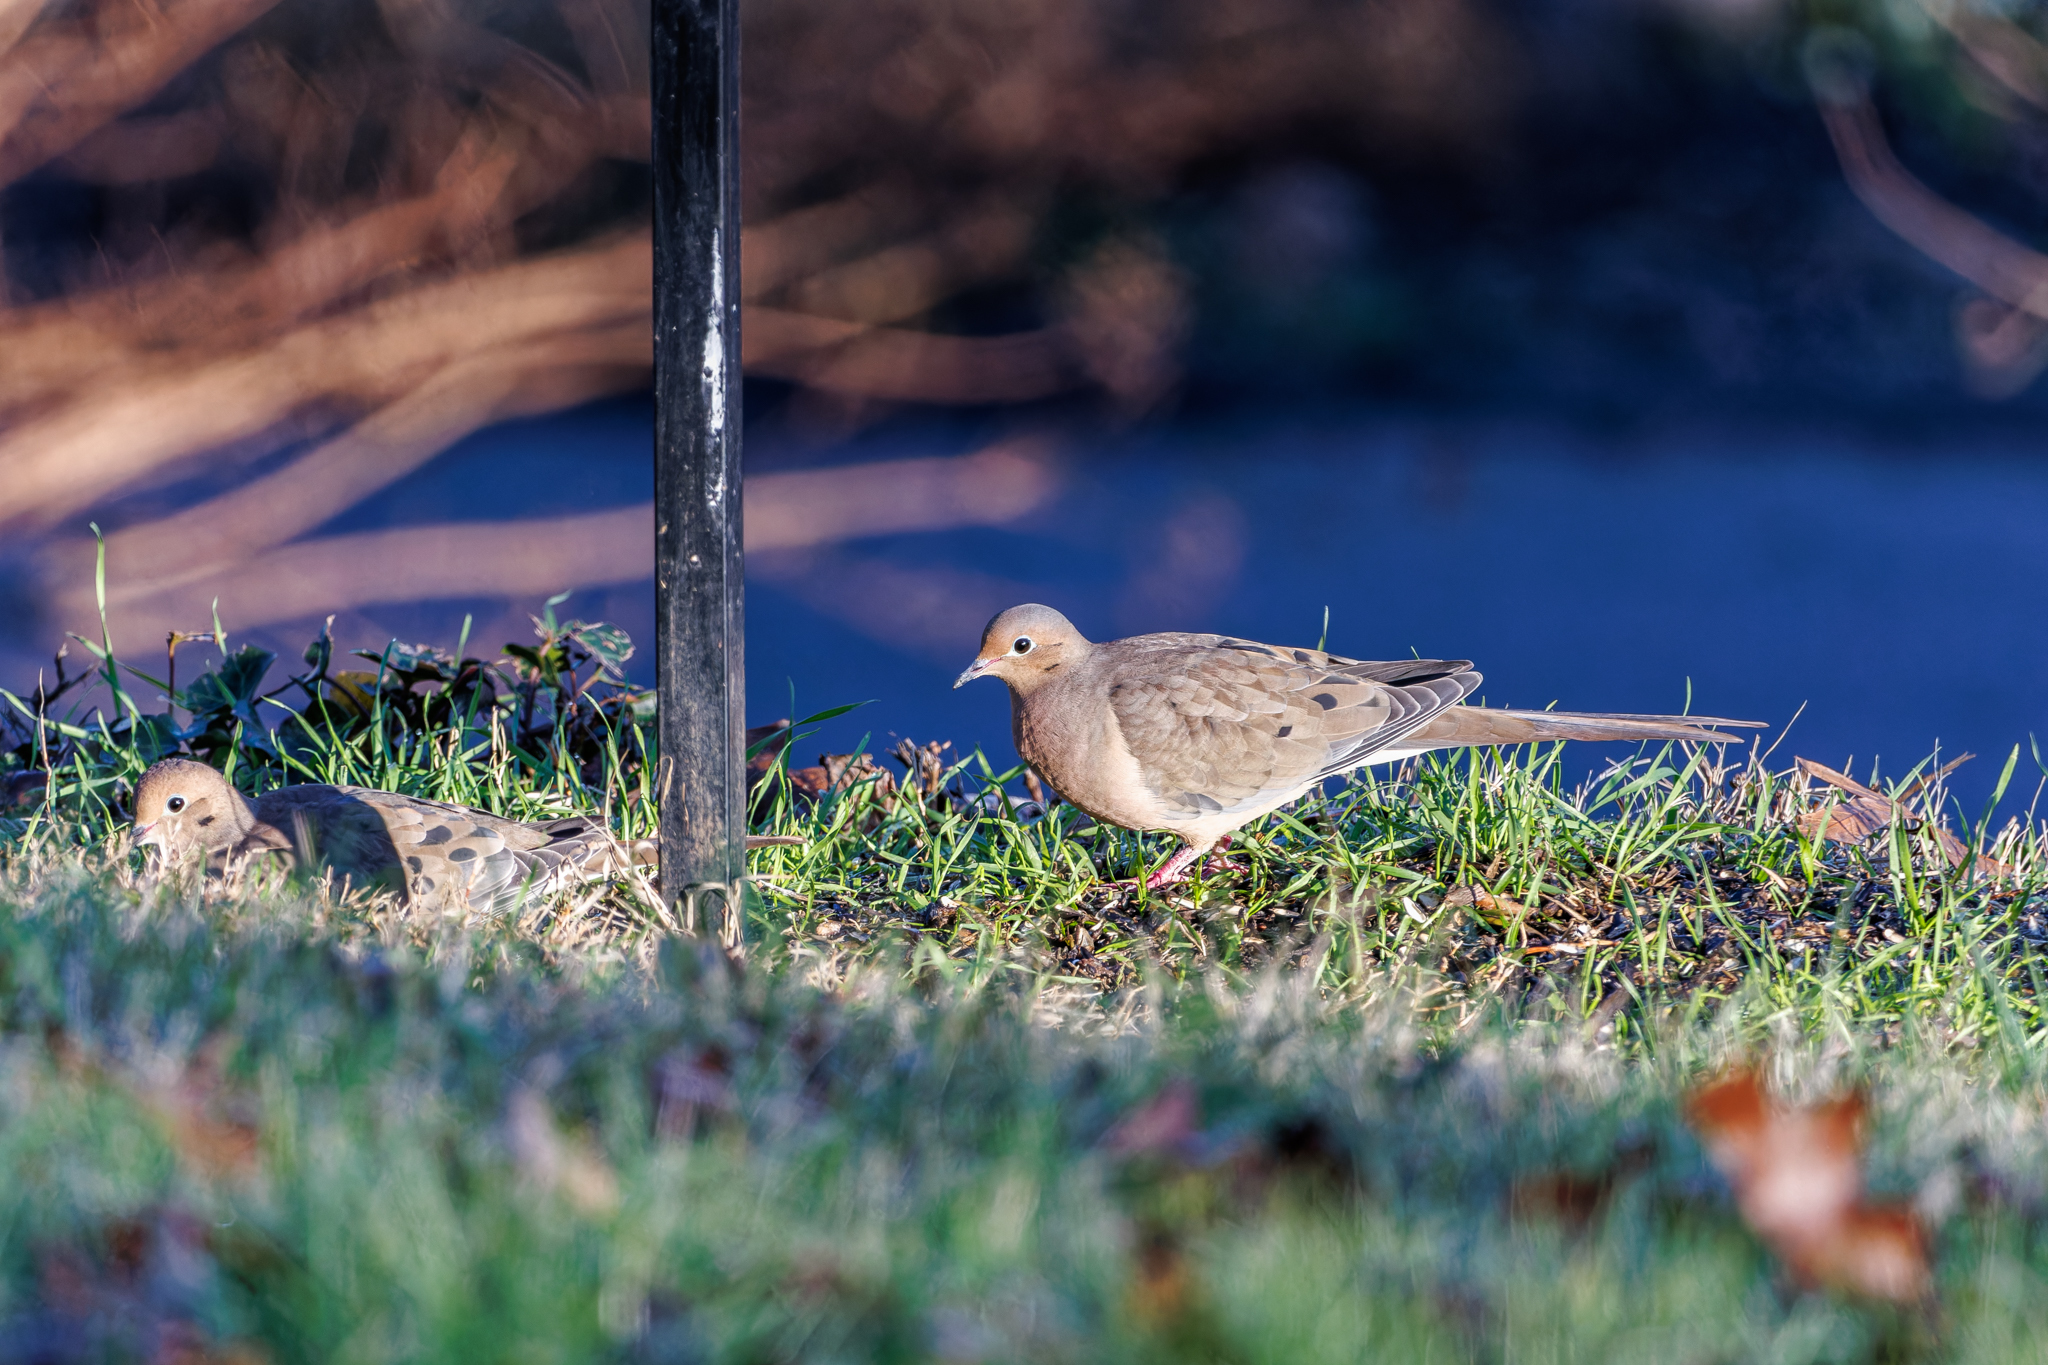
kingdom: Animalia
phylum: Chordata
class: Aves
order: Columbiformes
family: Columbidae
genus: Zenaida
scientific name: Zenaida macroura
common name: Mourning dove
